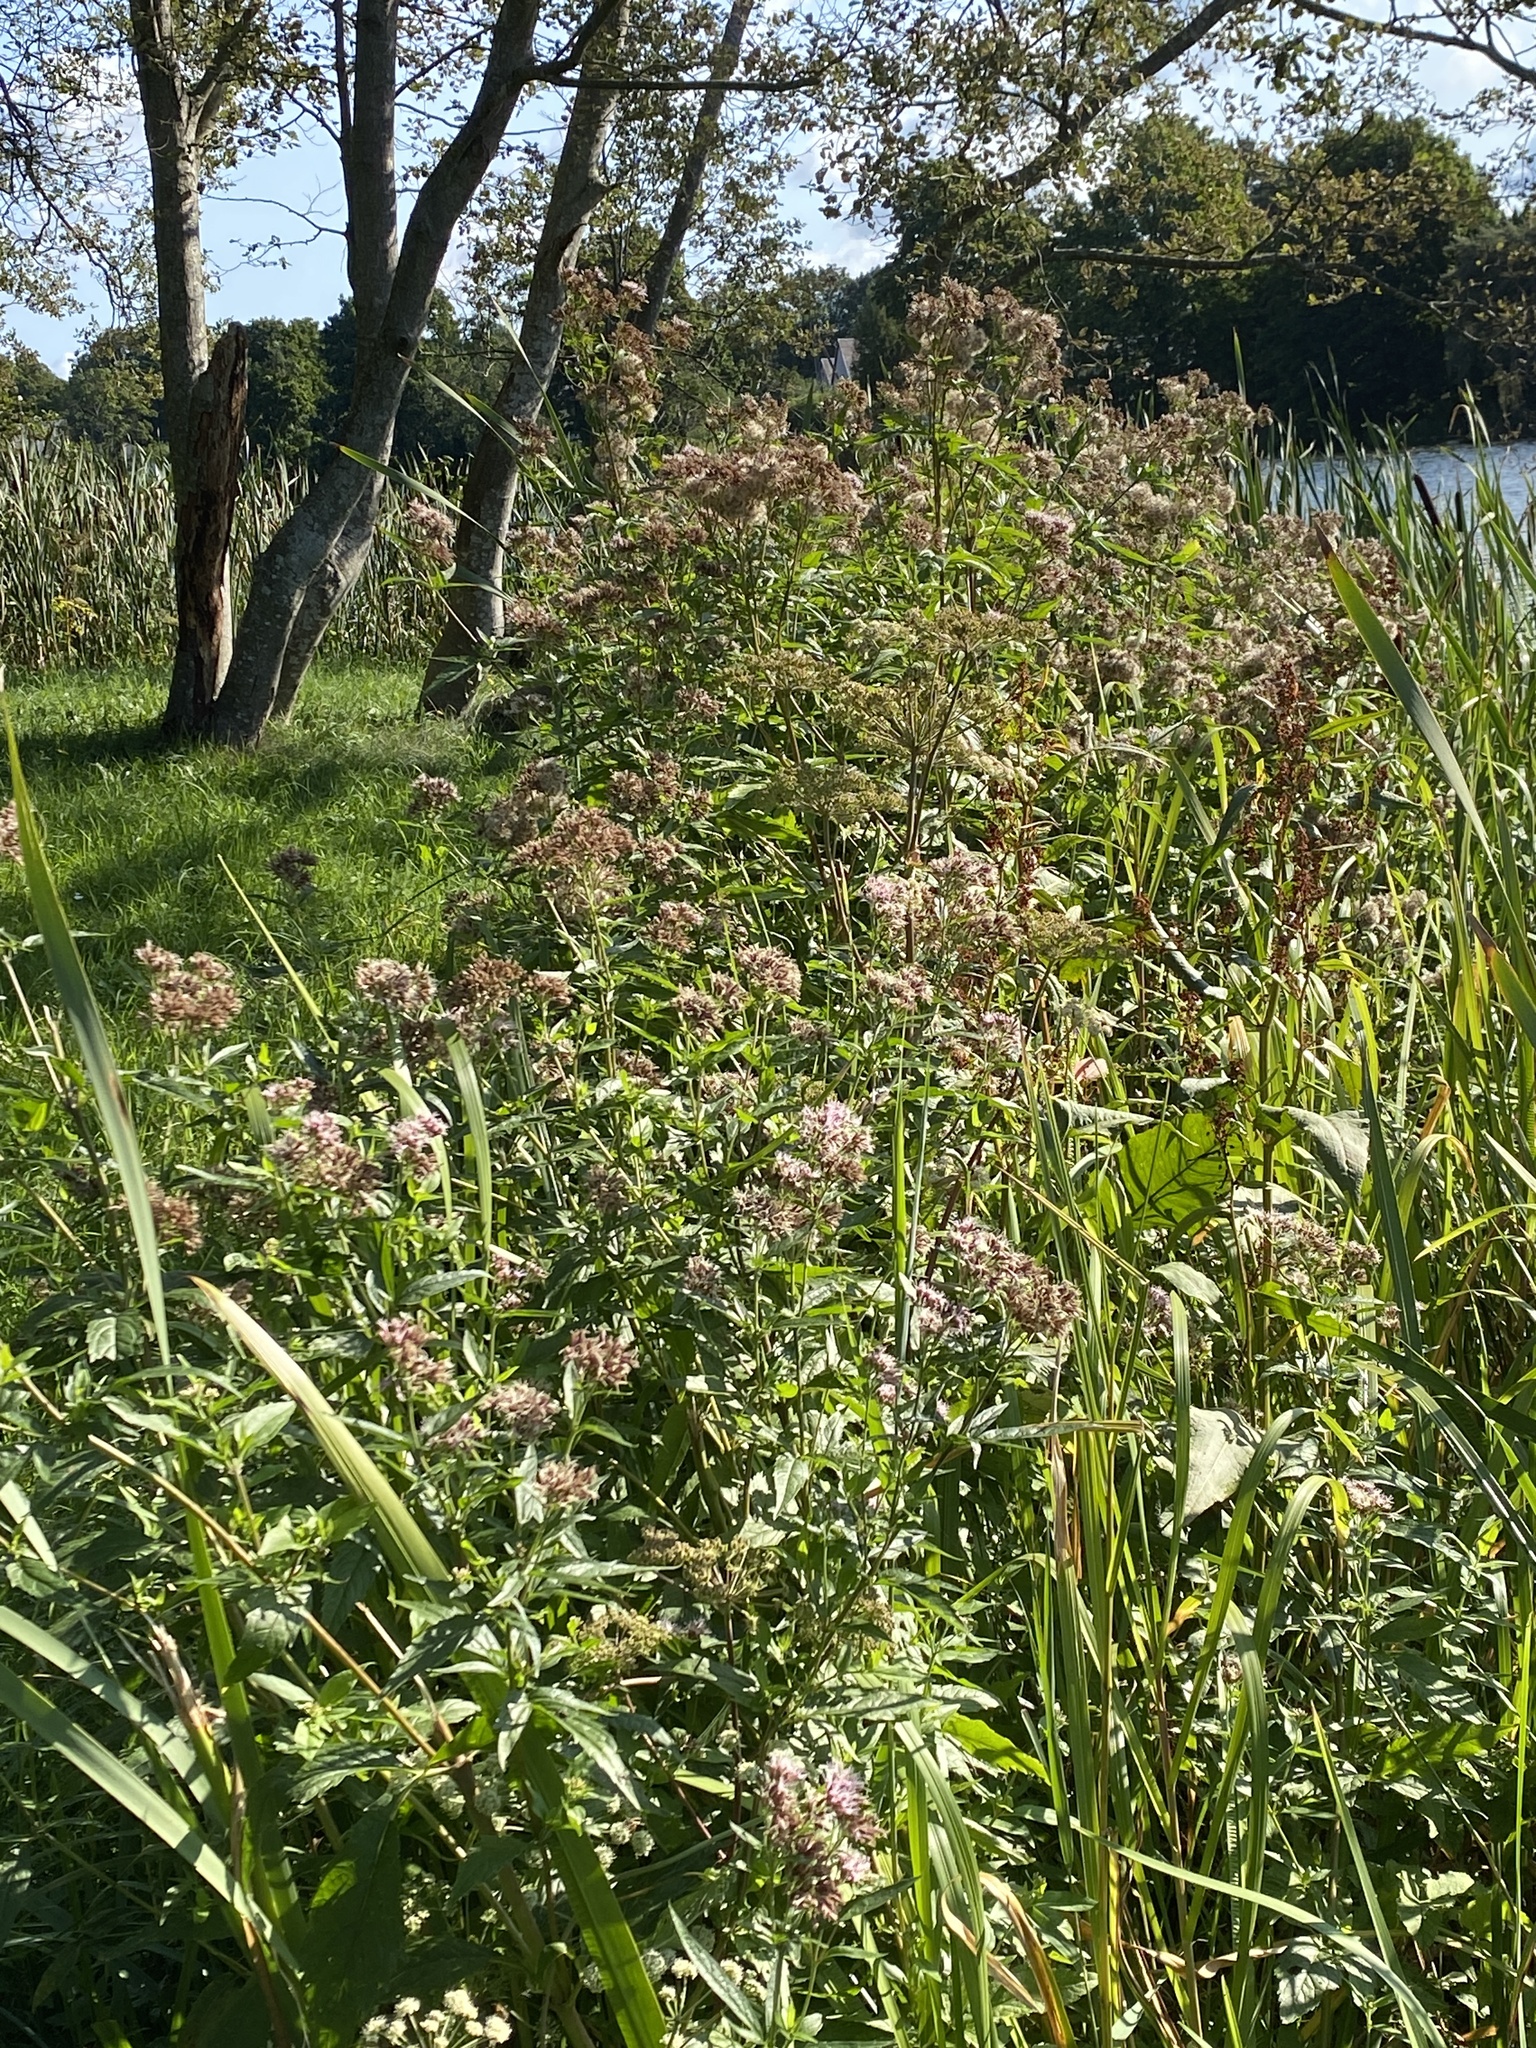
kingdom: Plantae
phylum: Tracheophyta
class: Magnoliopsida
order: Asterales
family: Asteraceae
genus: Eupatorium
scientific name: Eupatorium cannabinum
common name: Hemp-agrimony
